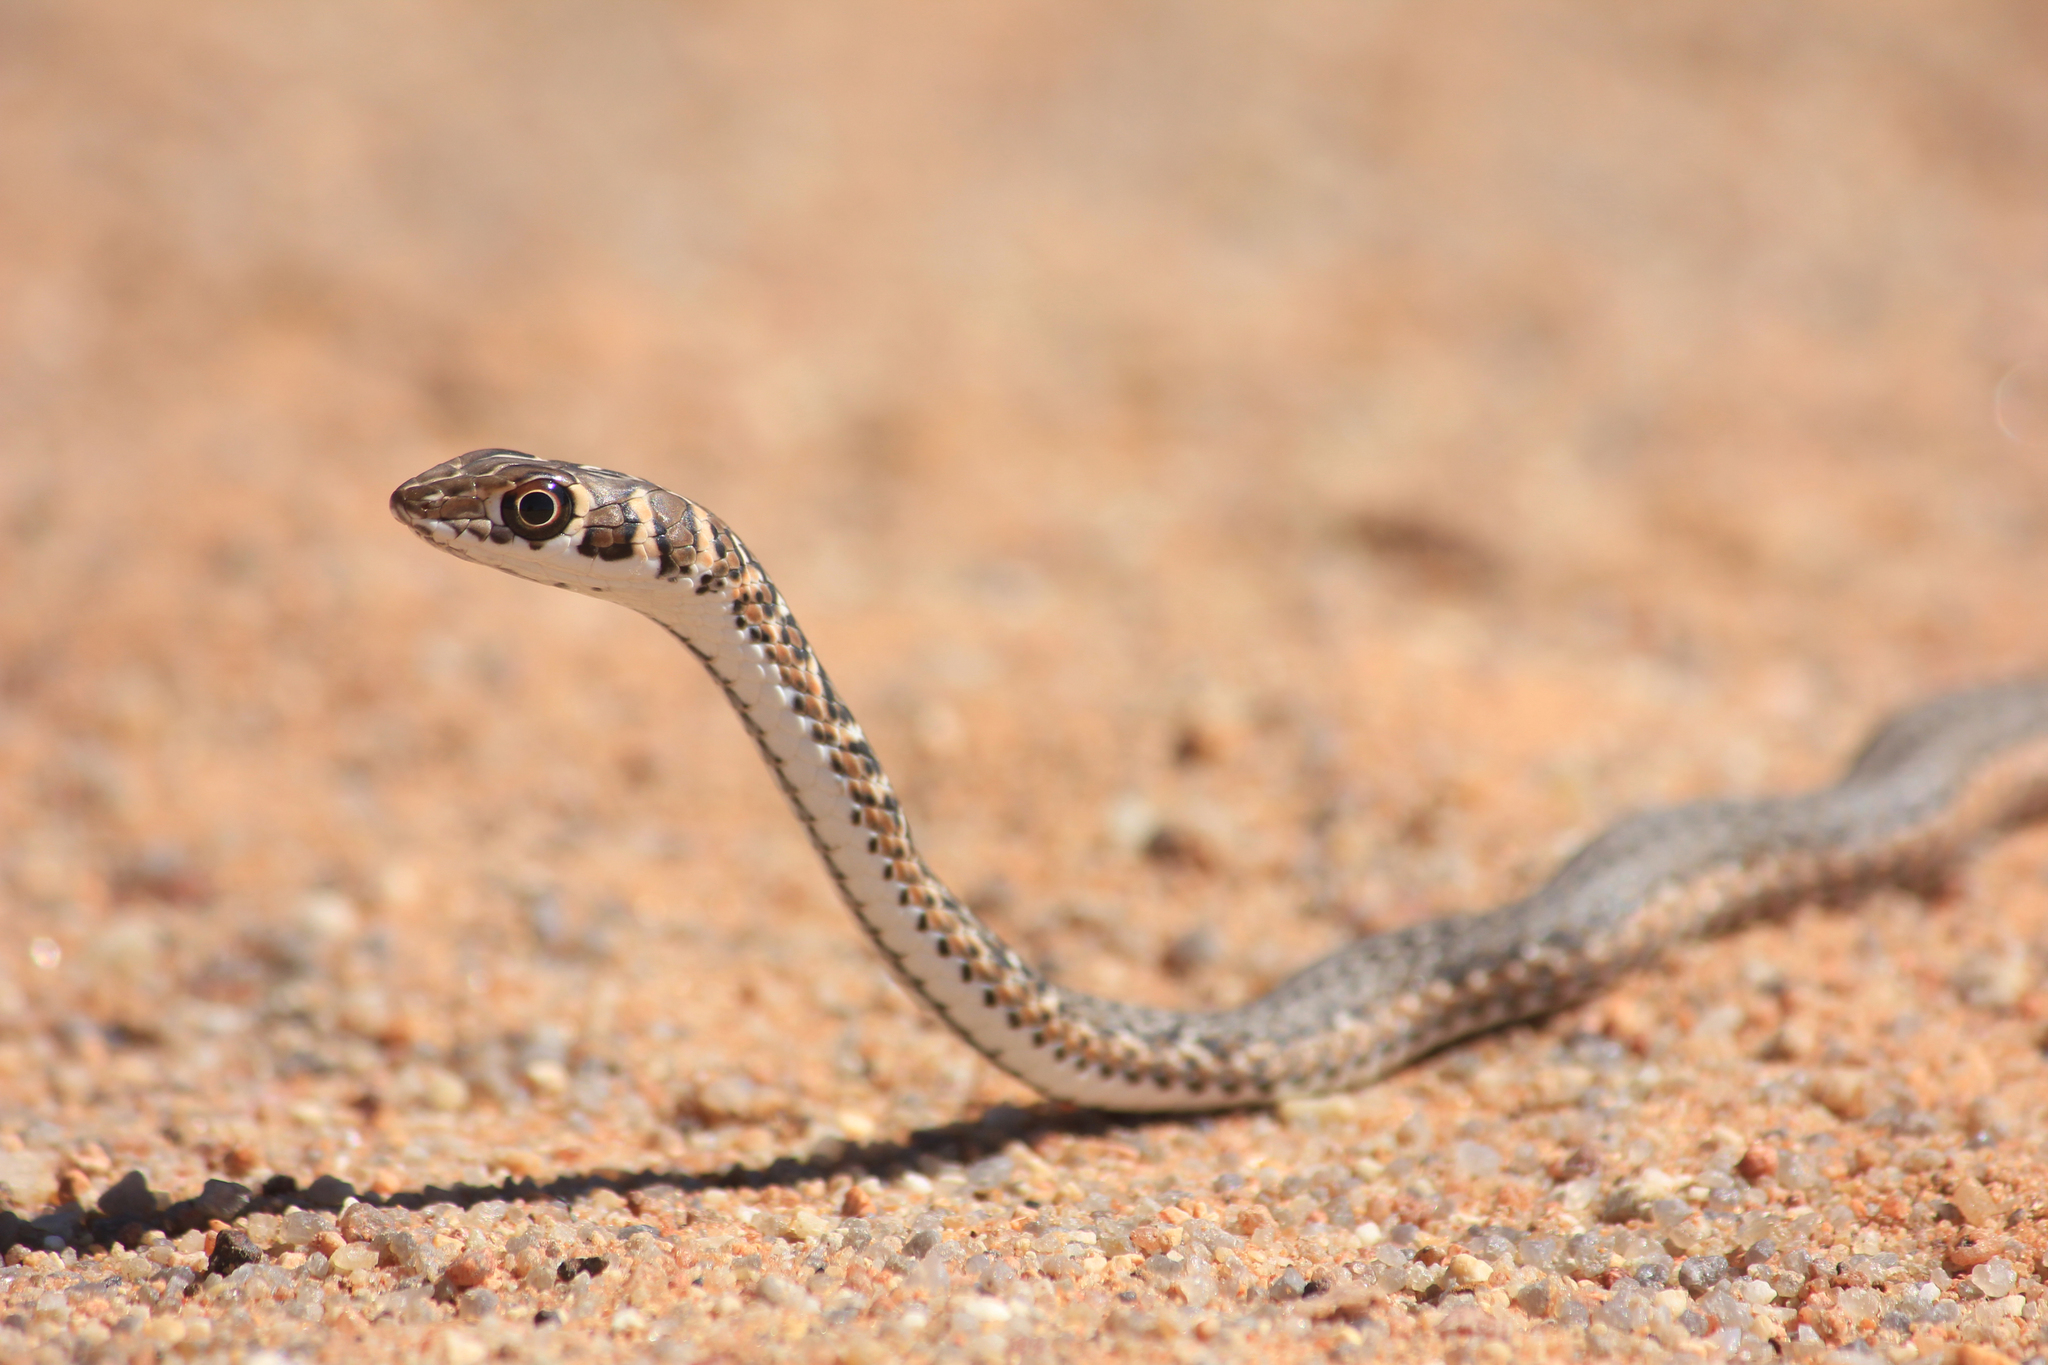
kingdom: Animalia
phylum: Chordata
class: Squamata
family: Psammophiidae
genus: Psammophis
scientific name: Psammophis leightoni
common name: Cape sand snake
